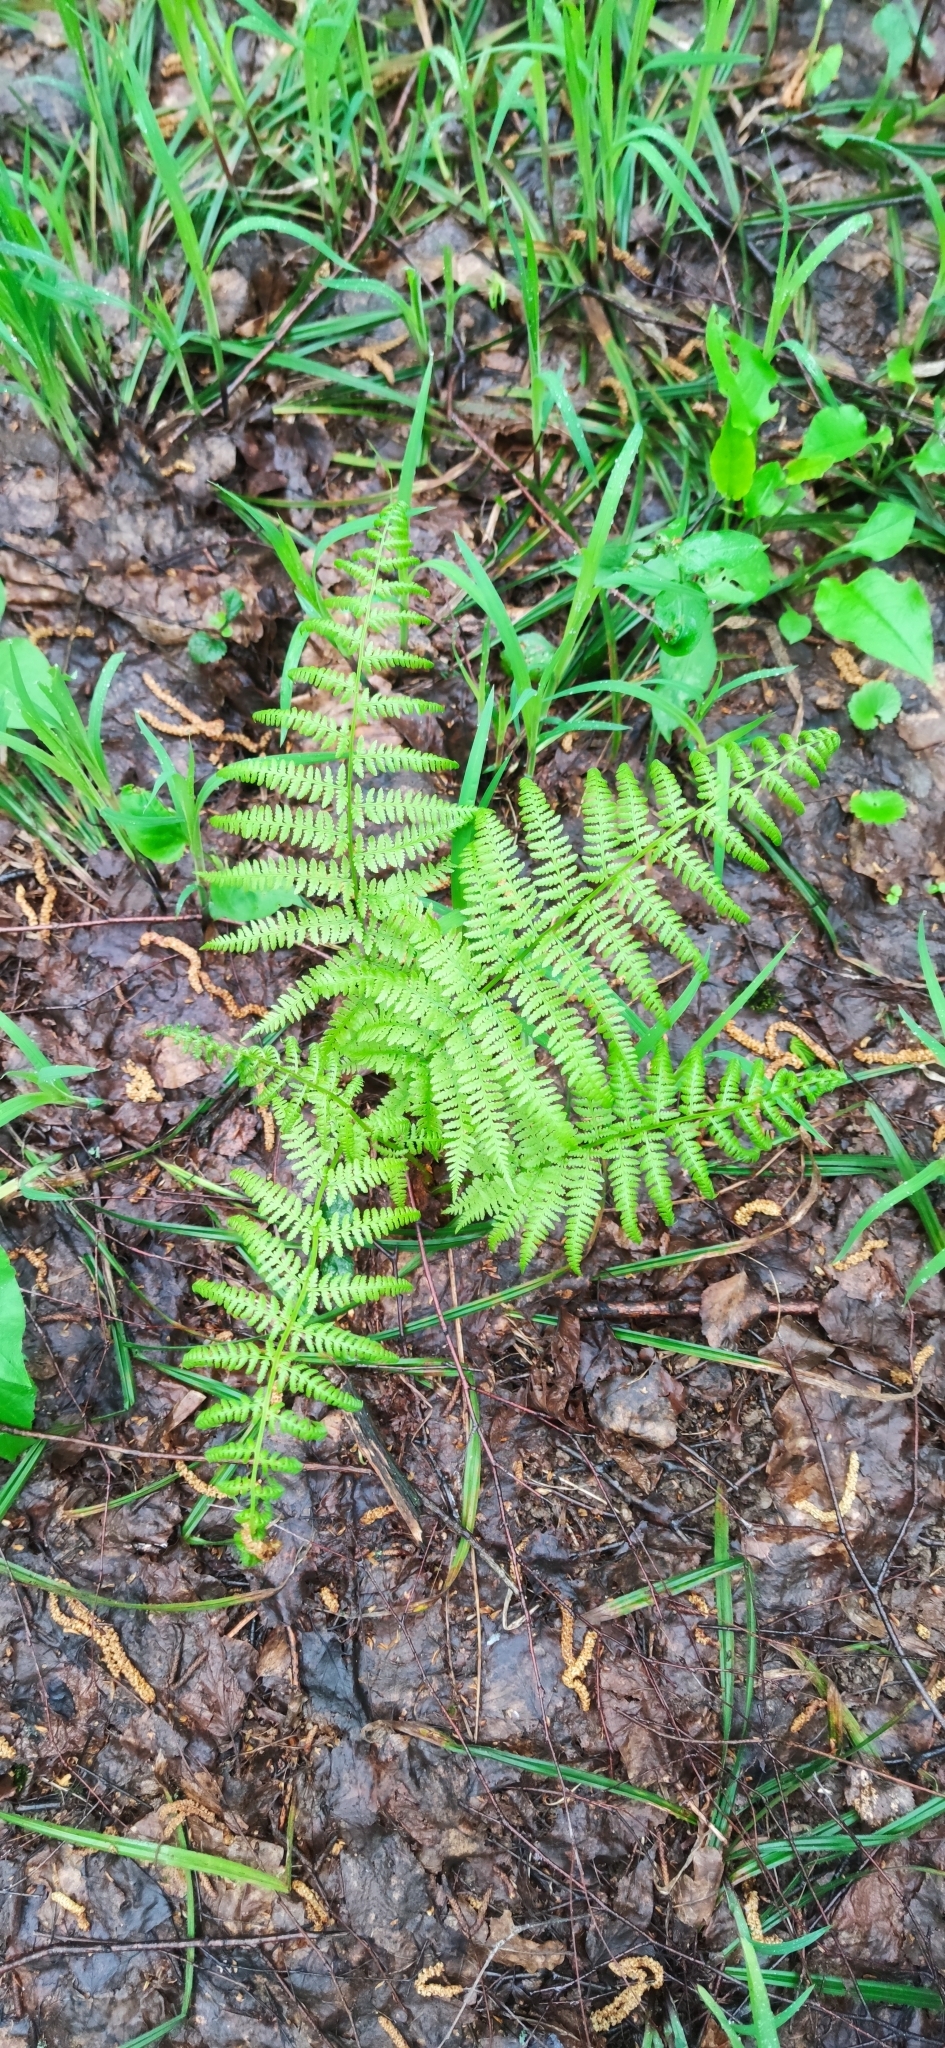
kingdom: Plantae
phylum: Tracheophyta
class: Polypodiopsida
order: Polypodiales
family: Athyriaceae
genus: Athyrium
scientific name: Athyrium filix-femina
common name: Lady fern
